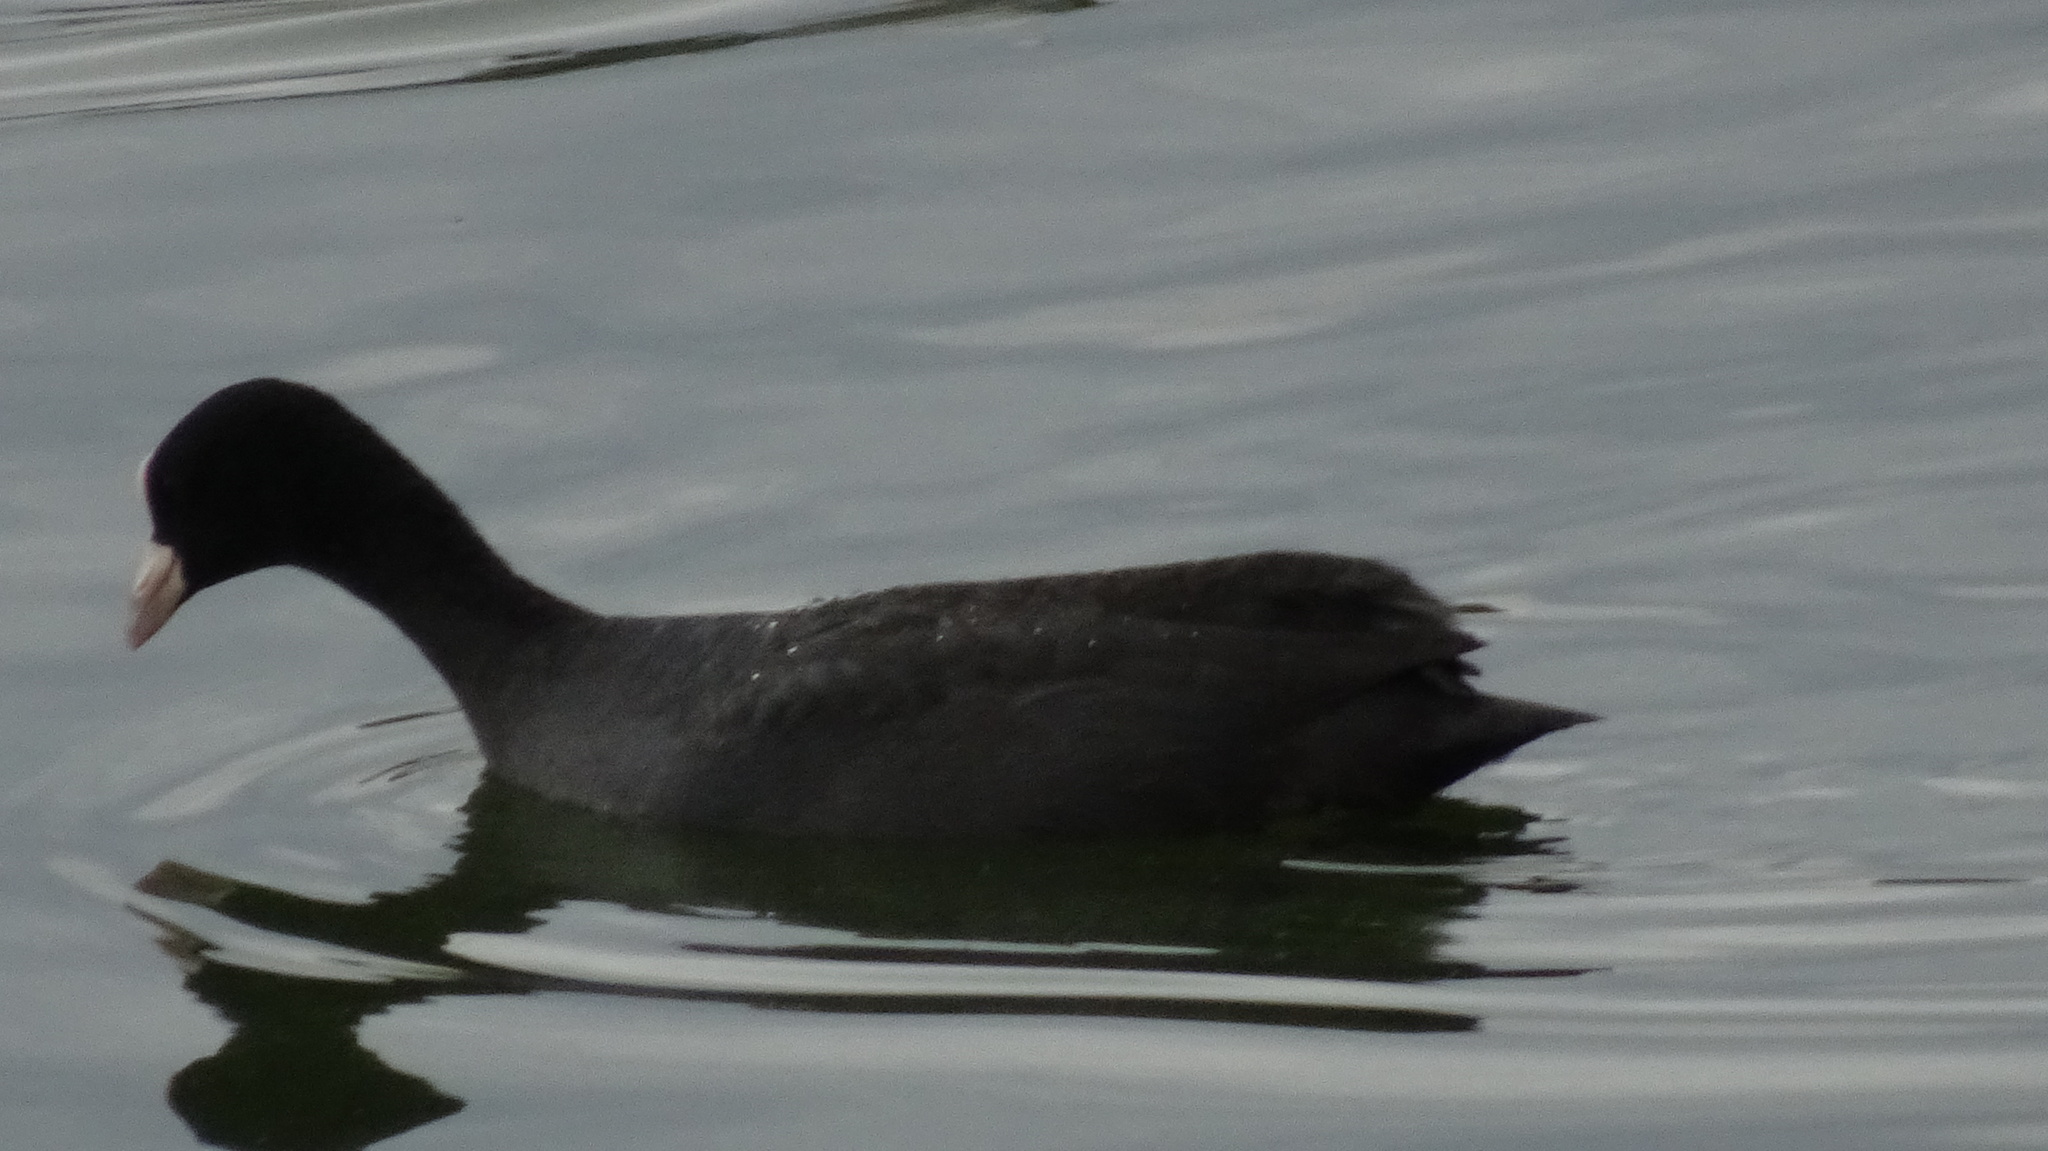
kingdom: Animalia
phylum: Chordata
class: Aves
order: Gruiformes
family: Rallidae
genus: Fulica
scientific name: Fulica atra
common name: Eurasian coot
